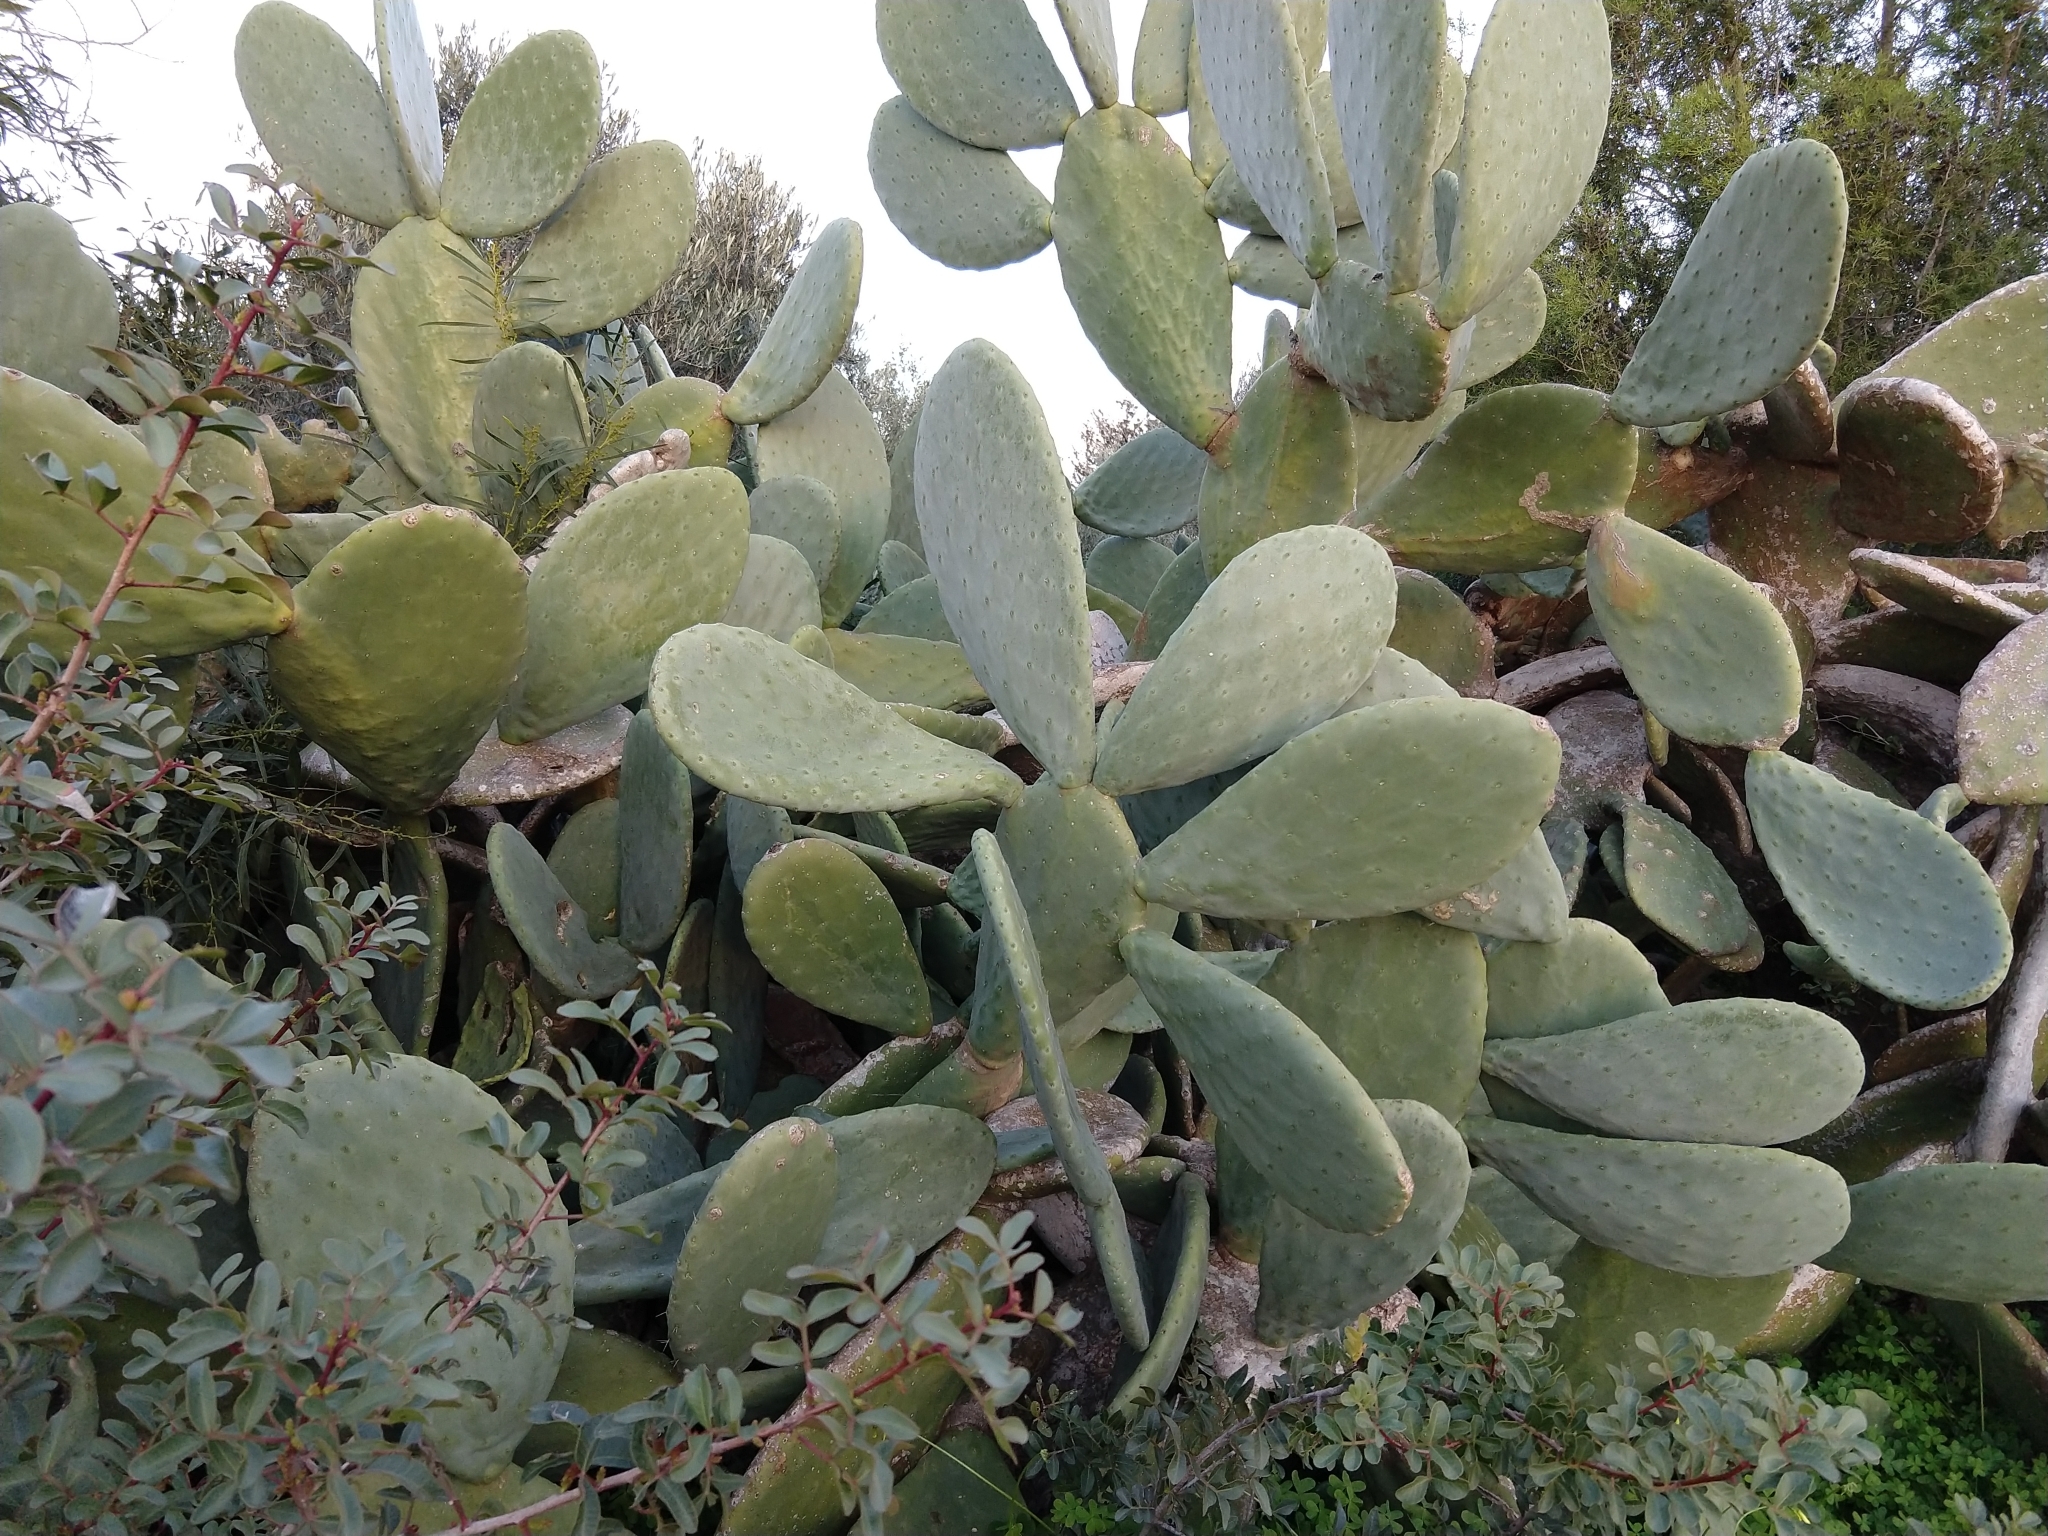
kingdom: Plantae
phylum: Tracheophyta
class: Magnoliopsida
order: Caryophyllales
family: Cactaceae
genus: Opuntia
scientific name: Opuntia ficus-indica
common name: Barbary fig
